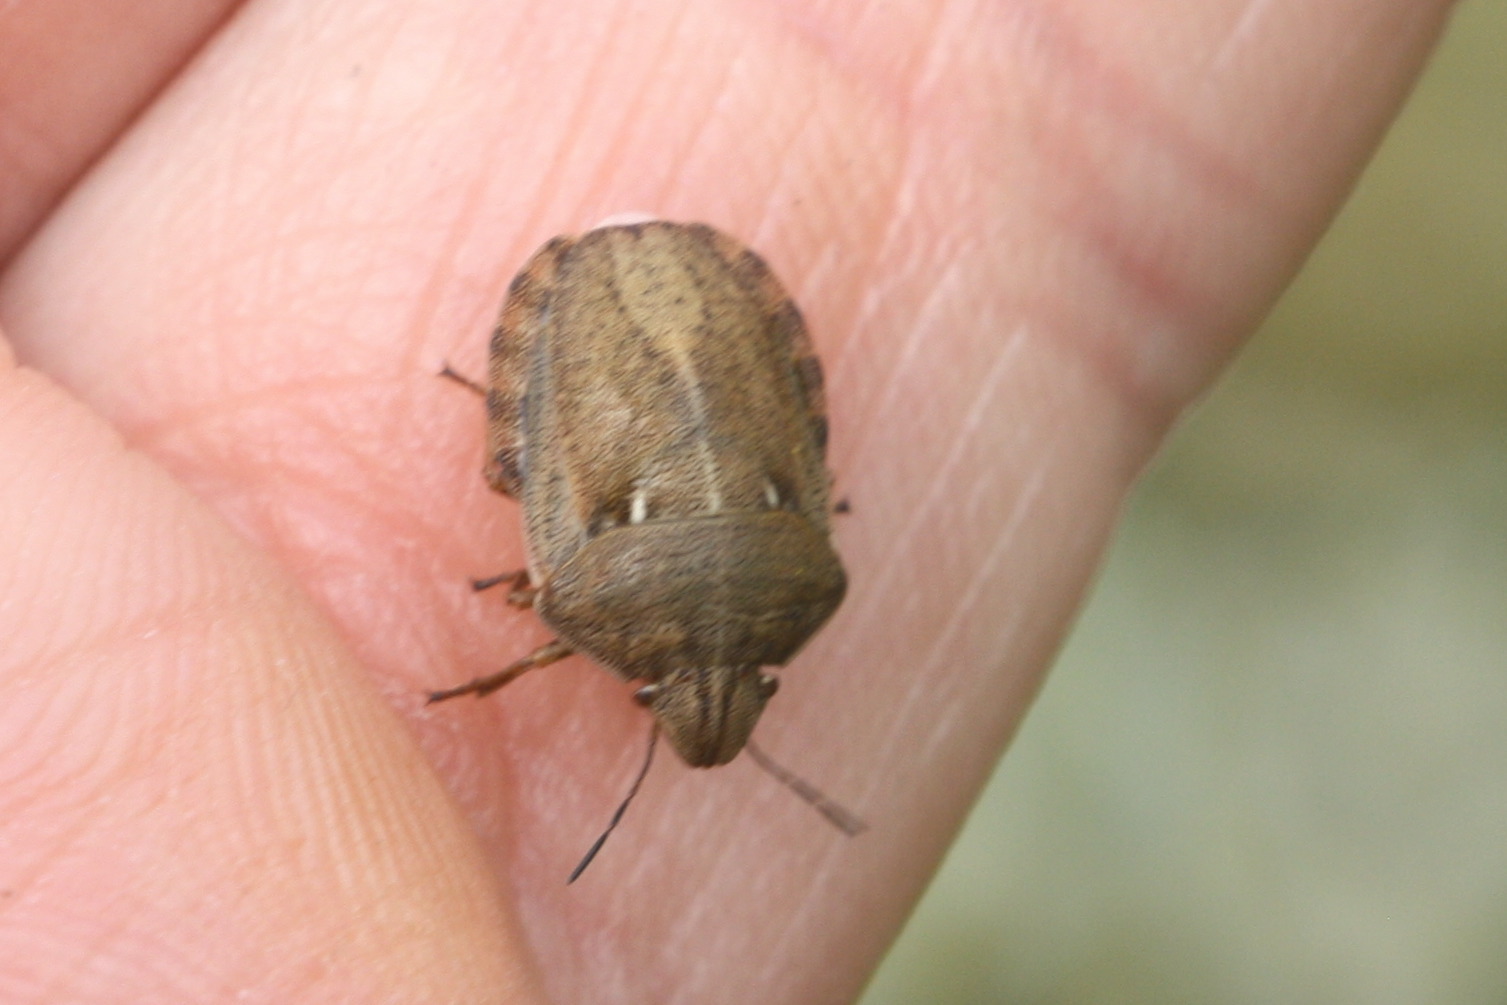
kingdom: Animalia
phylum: Arthropoda
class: Insecta
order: Hemiptera
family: Scutelleridae
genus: Eurygaster
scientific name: Eurygaster testudinaria
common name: Tortoise bug
